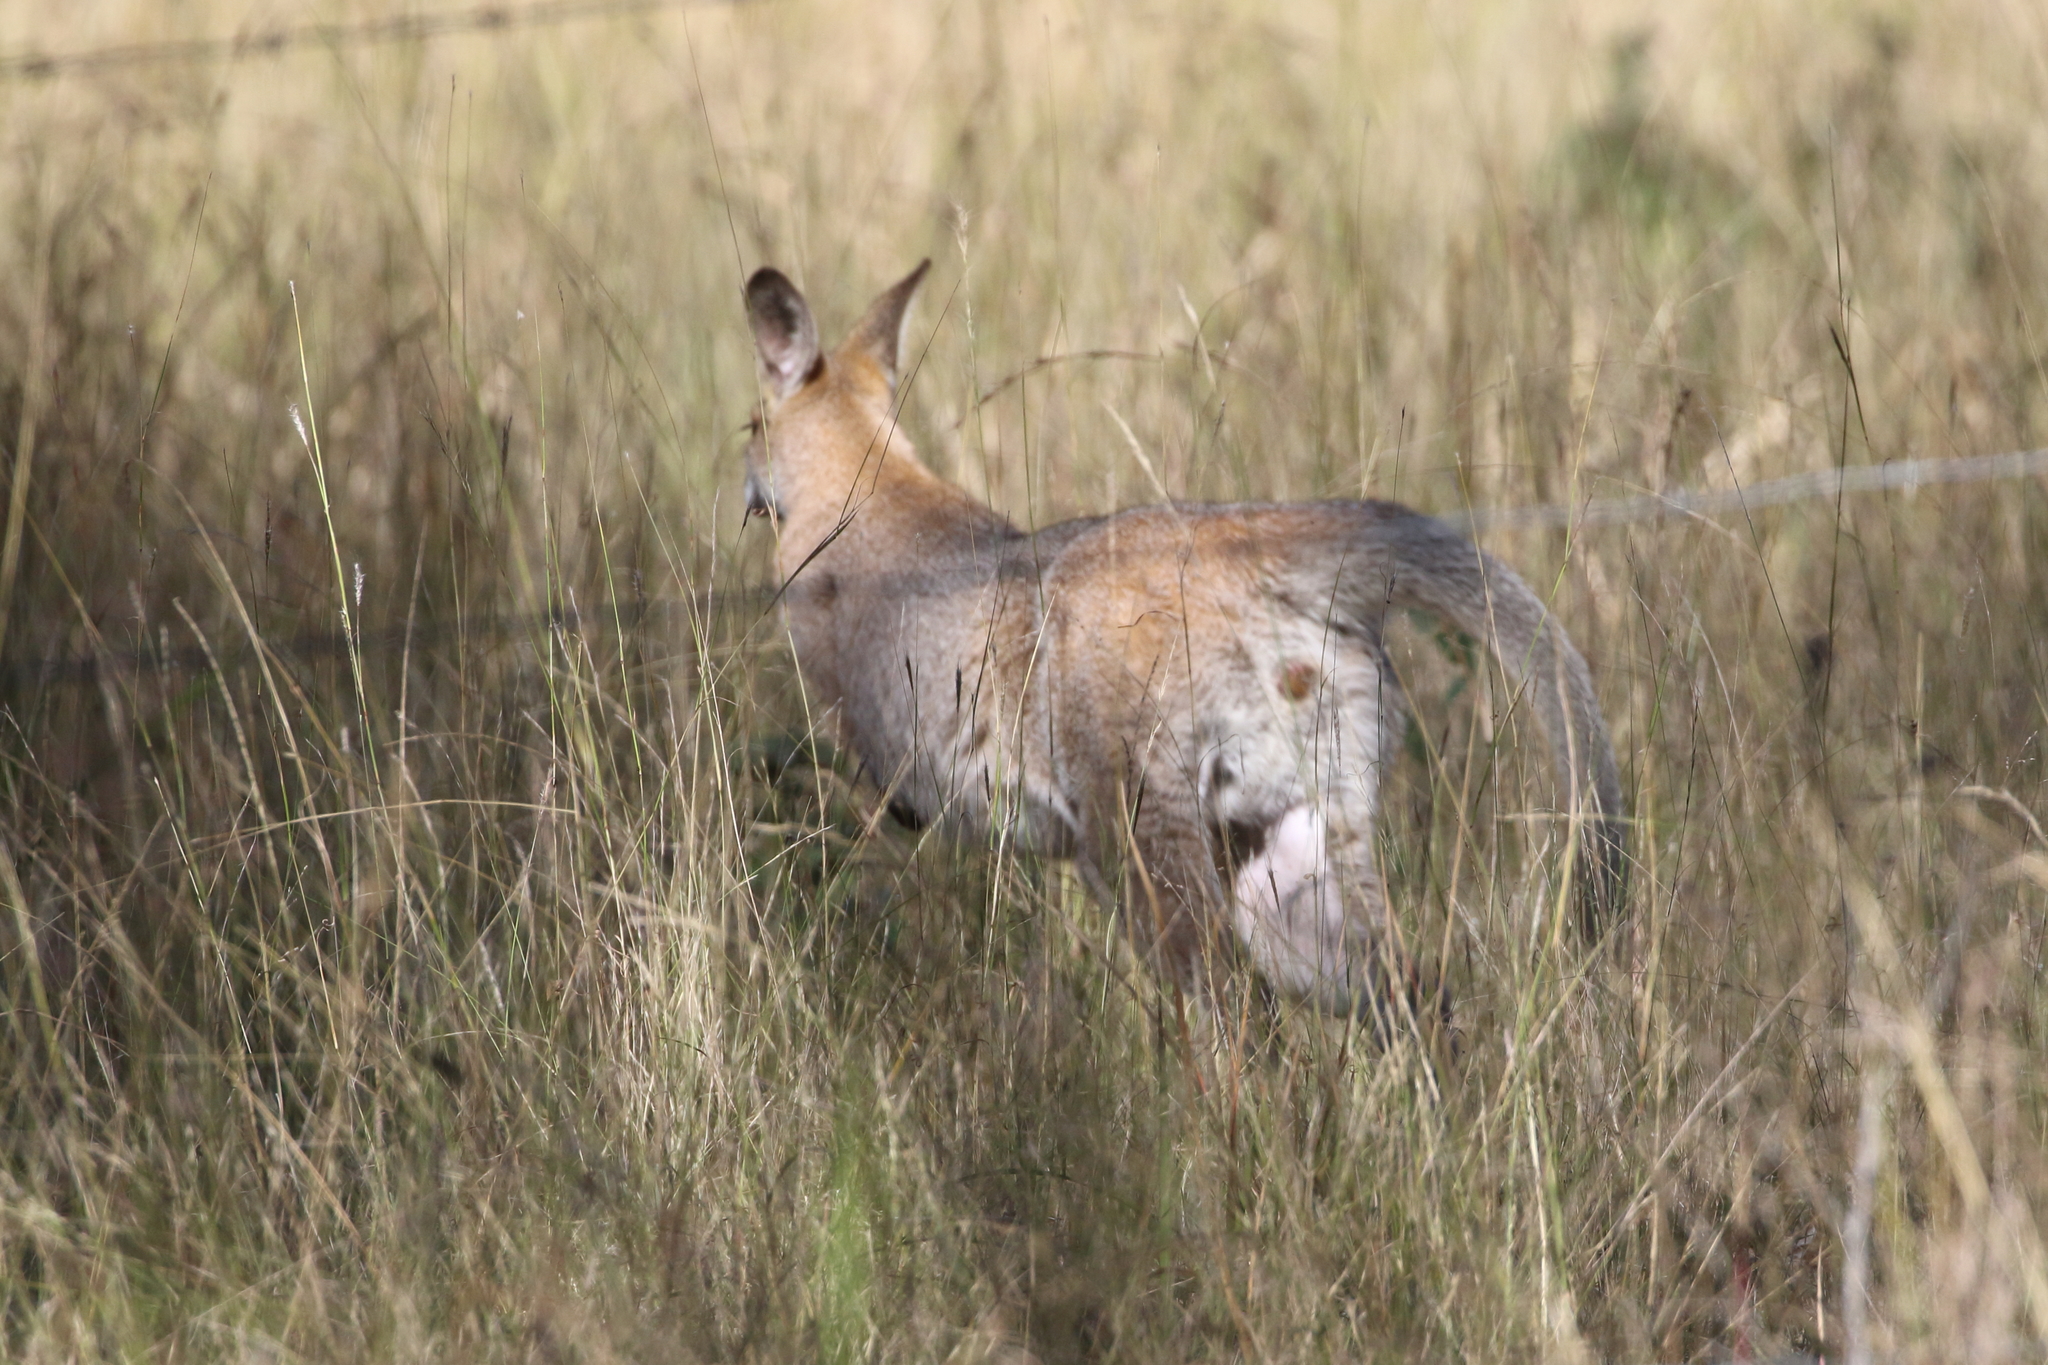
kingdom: Animalia
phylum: Chordata
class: Mammalia
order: Diprotodontia
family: Macropodidae
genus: Notamacropus
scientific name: Notamacropus rufogriseus
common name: Red-necked wallaby
